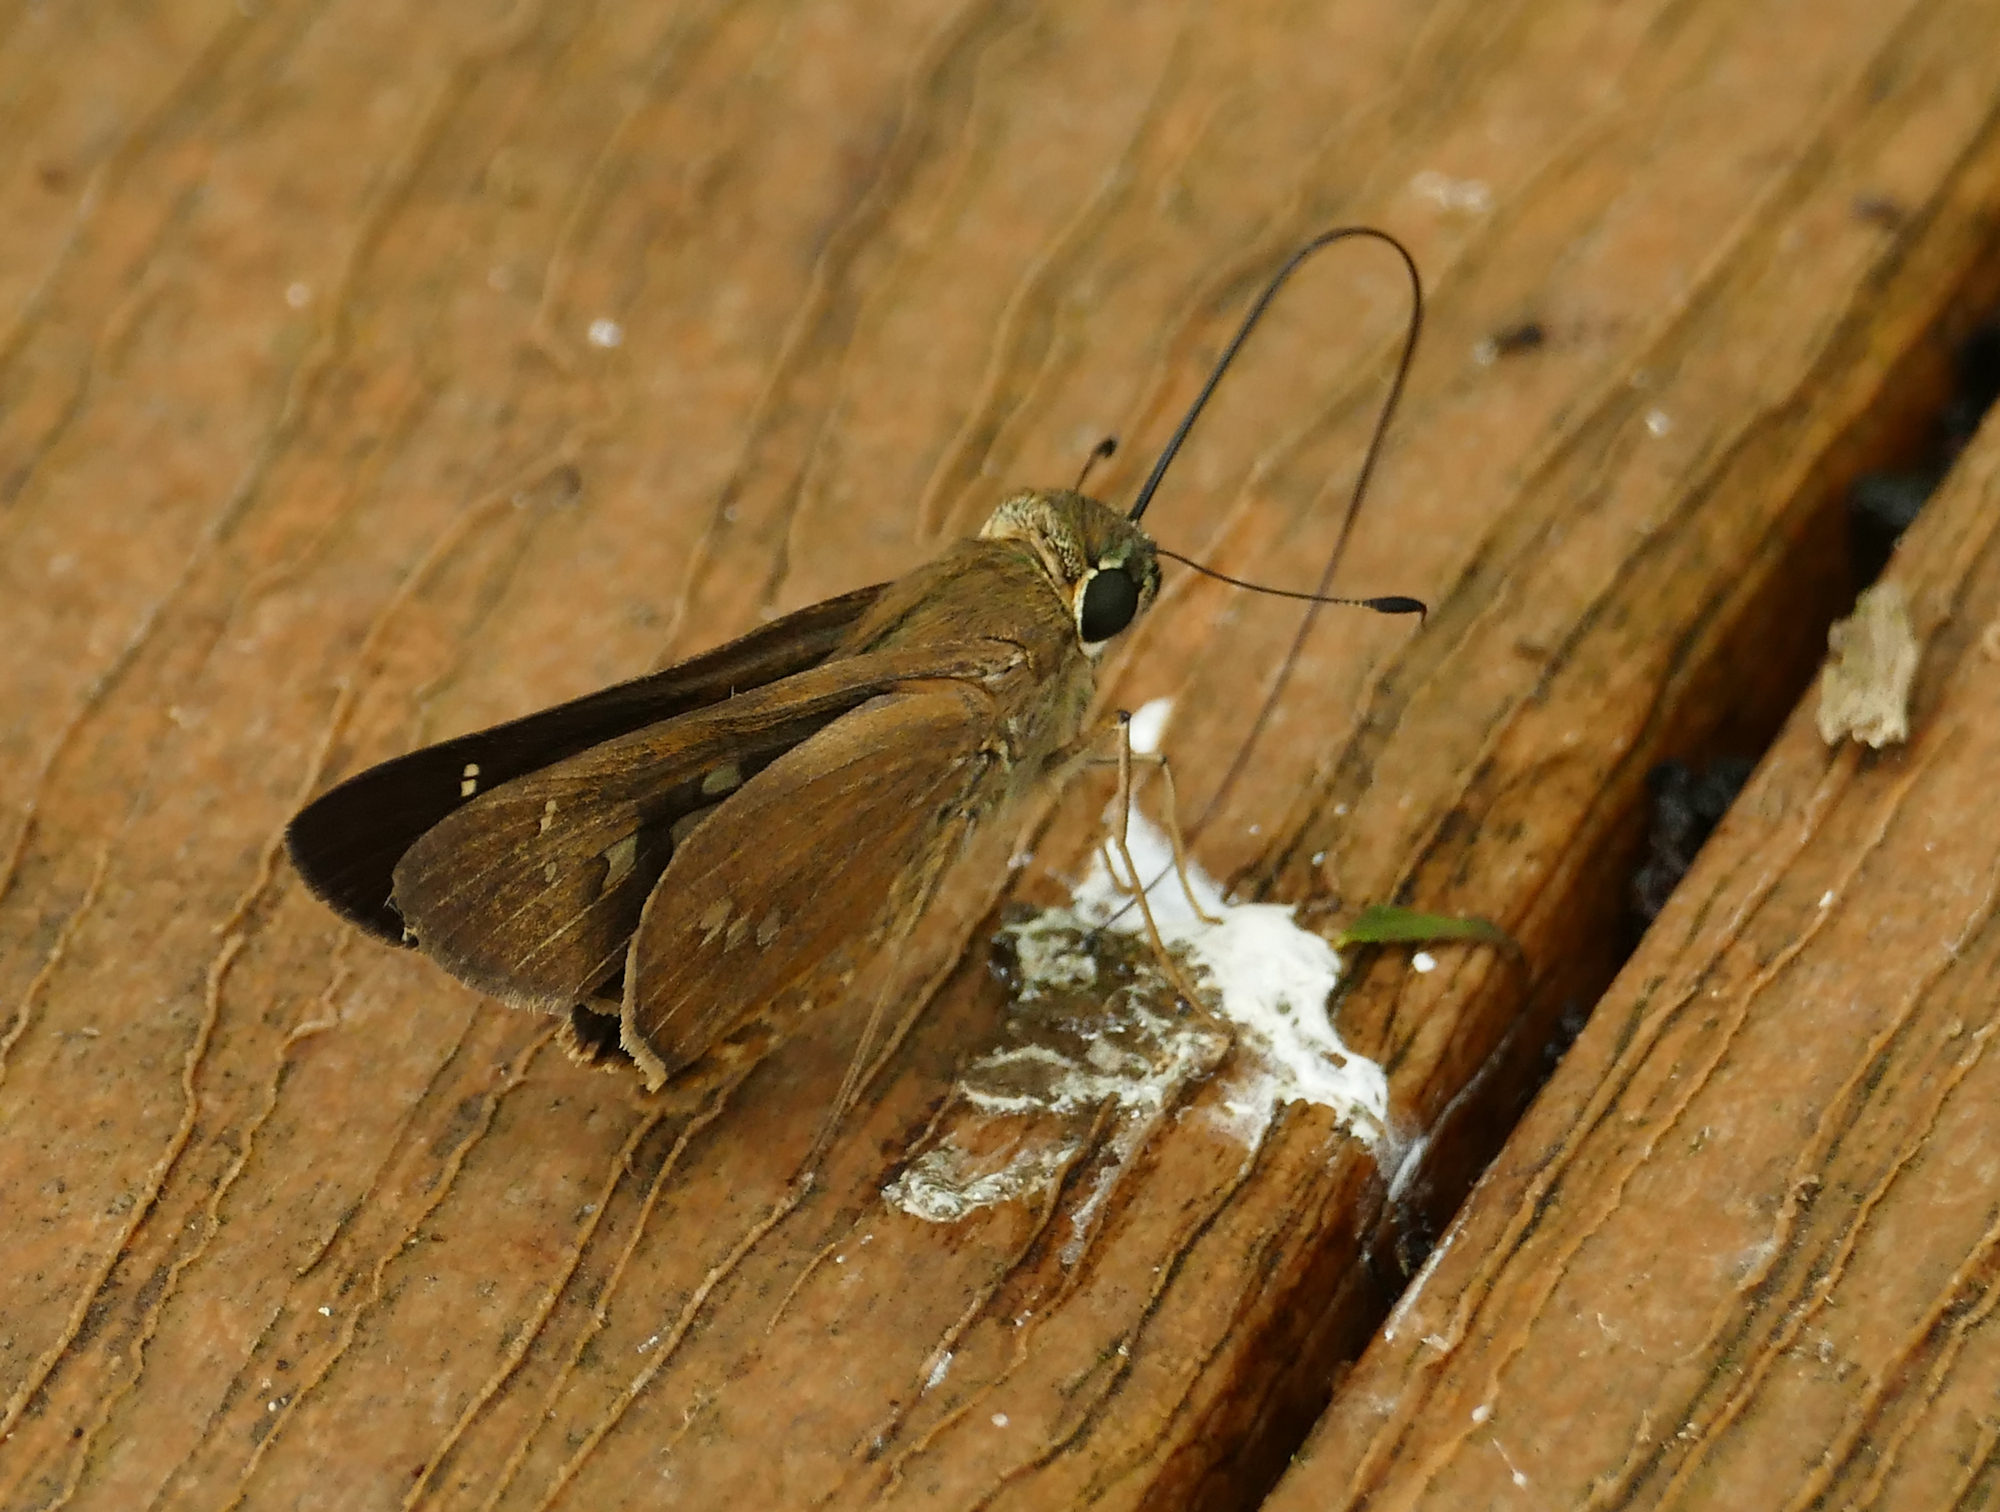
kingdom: Animalia
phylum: Arthropoda
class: Insecta
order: Lepidoptera
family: Hesperiidae
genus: Calpodes
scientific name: Calpodes ethlius
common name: Brazilian skipper
